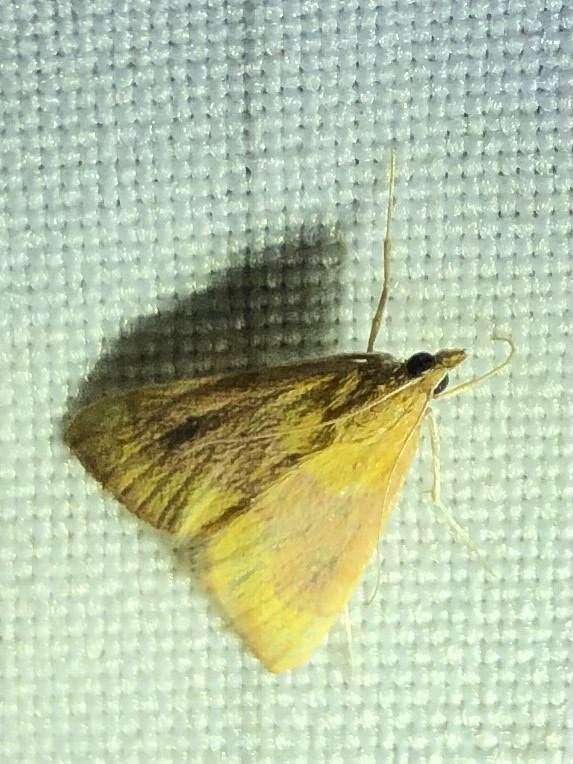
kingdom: Animalia
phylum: Arthropoda
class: Insecta
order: Lepidoptera
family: Crambidae
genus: Pyrausta
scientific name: Pyrausta castalis
